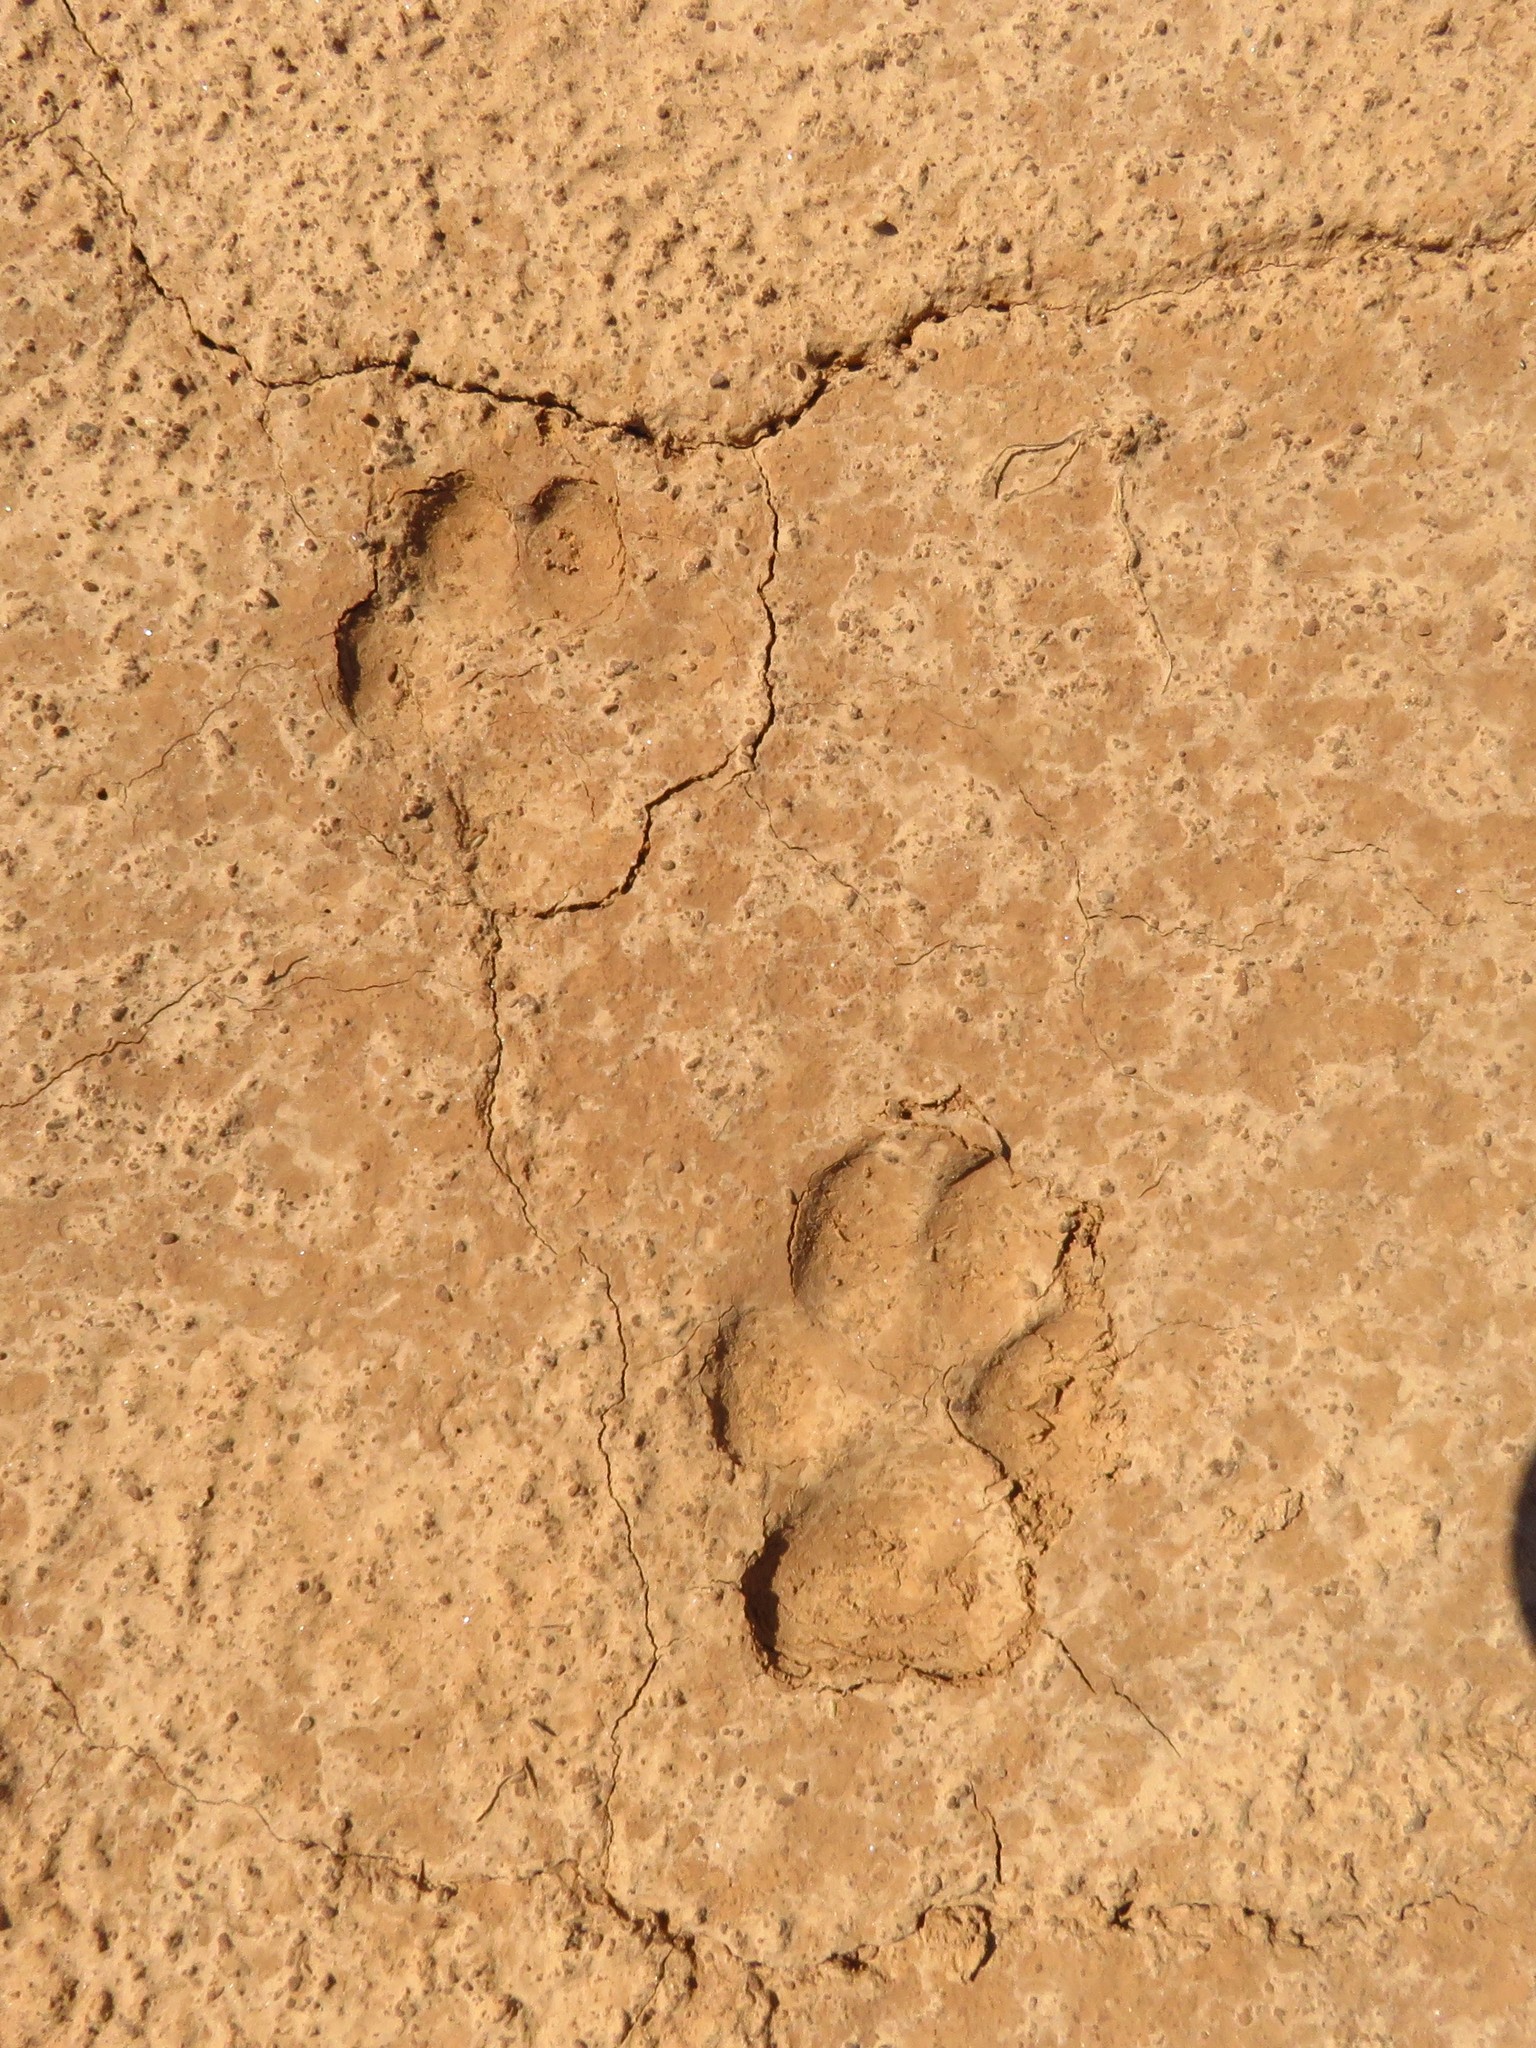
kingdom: Animalia
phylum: Chordata
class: Mammalia
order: Carnivora
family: Canidae
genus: Canis
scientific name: Canis latrans
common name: Coyote
